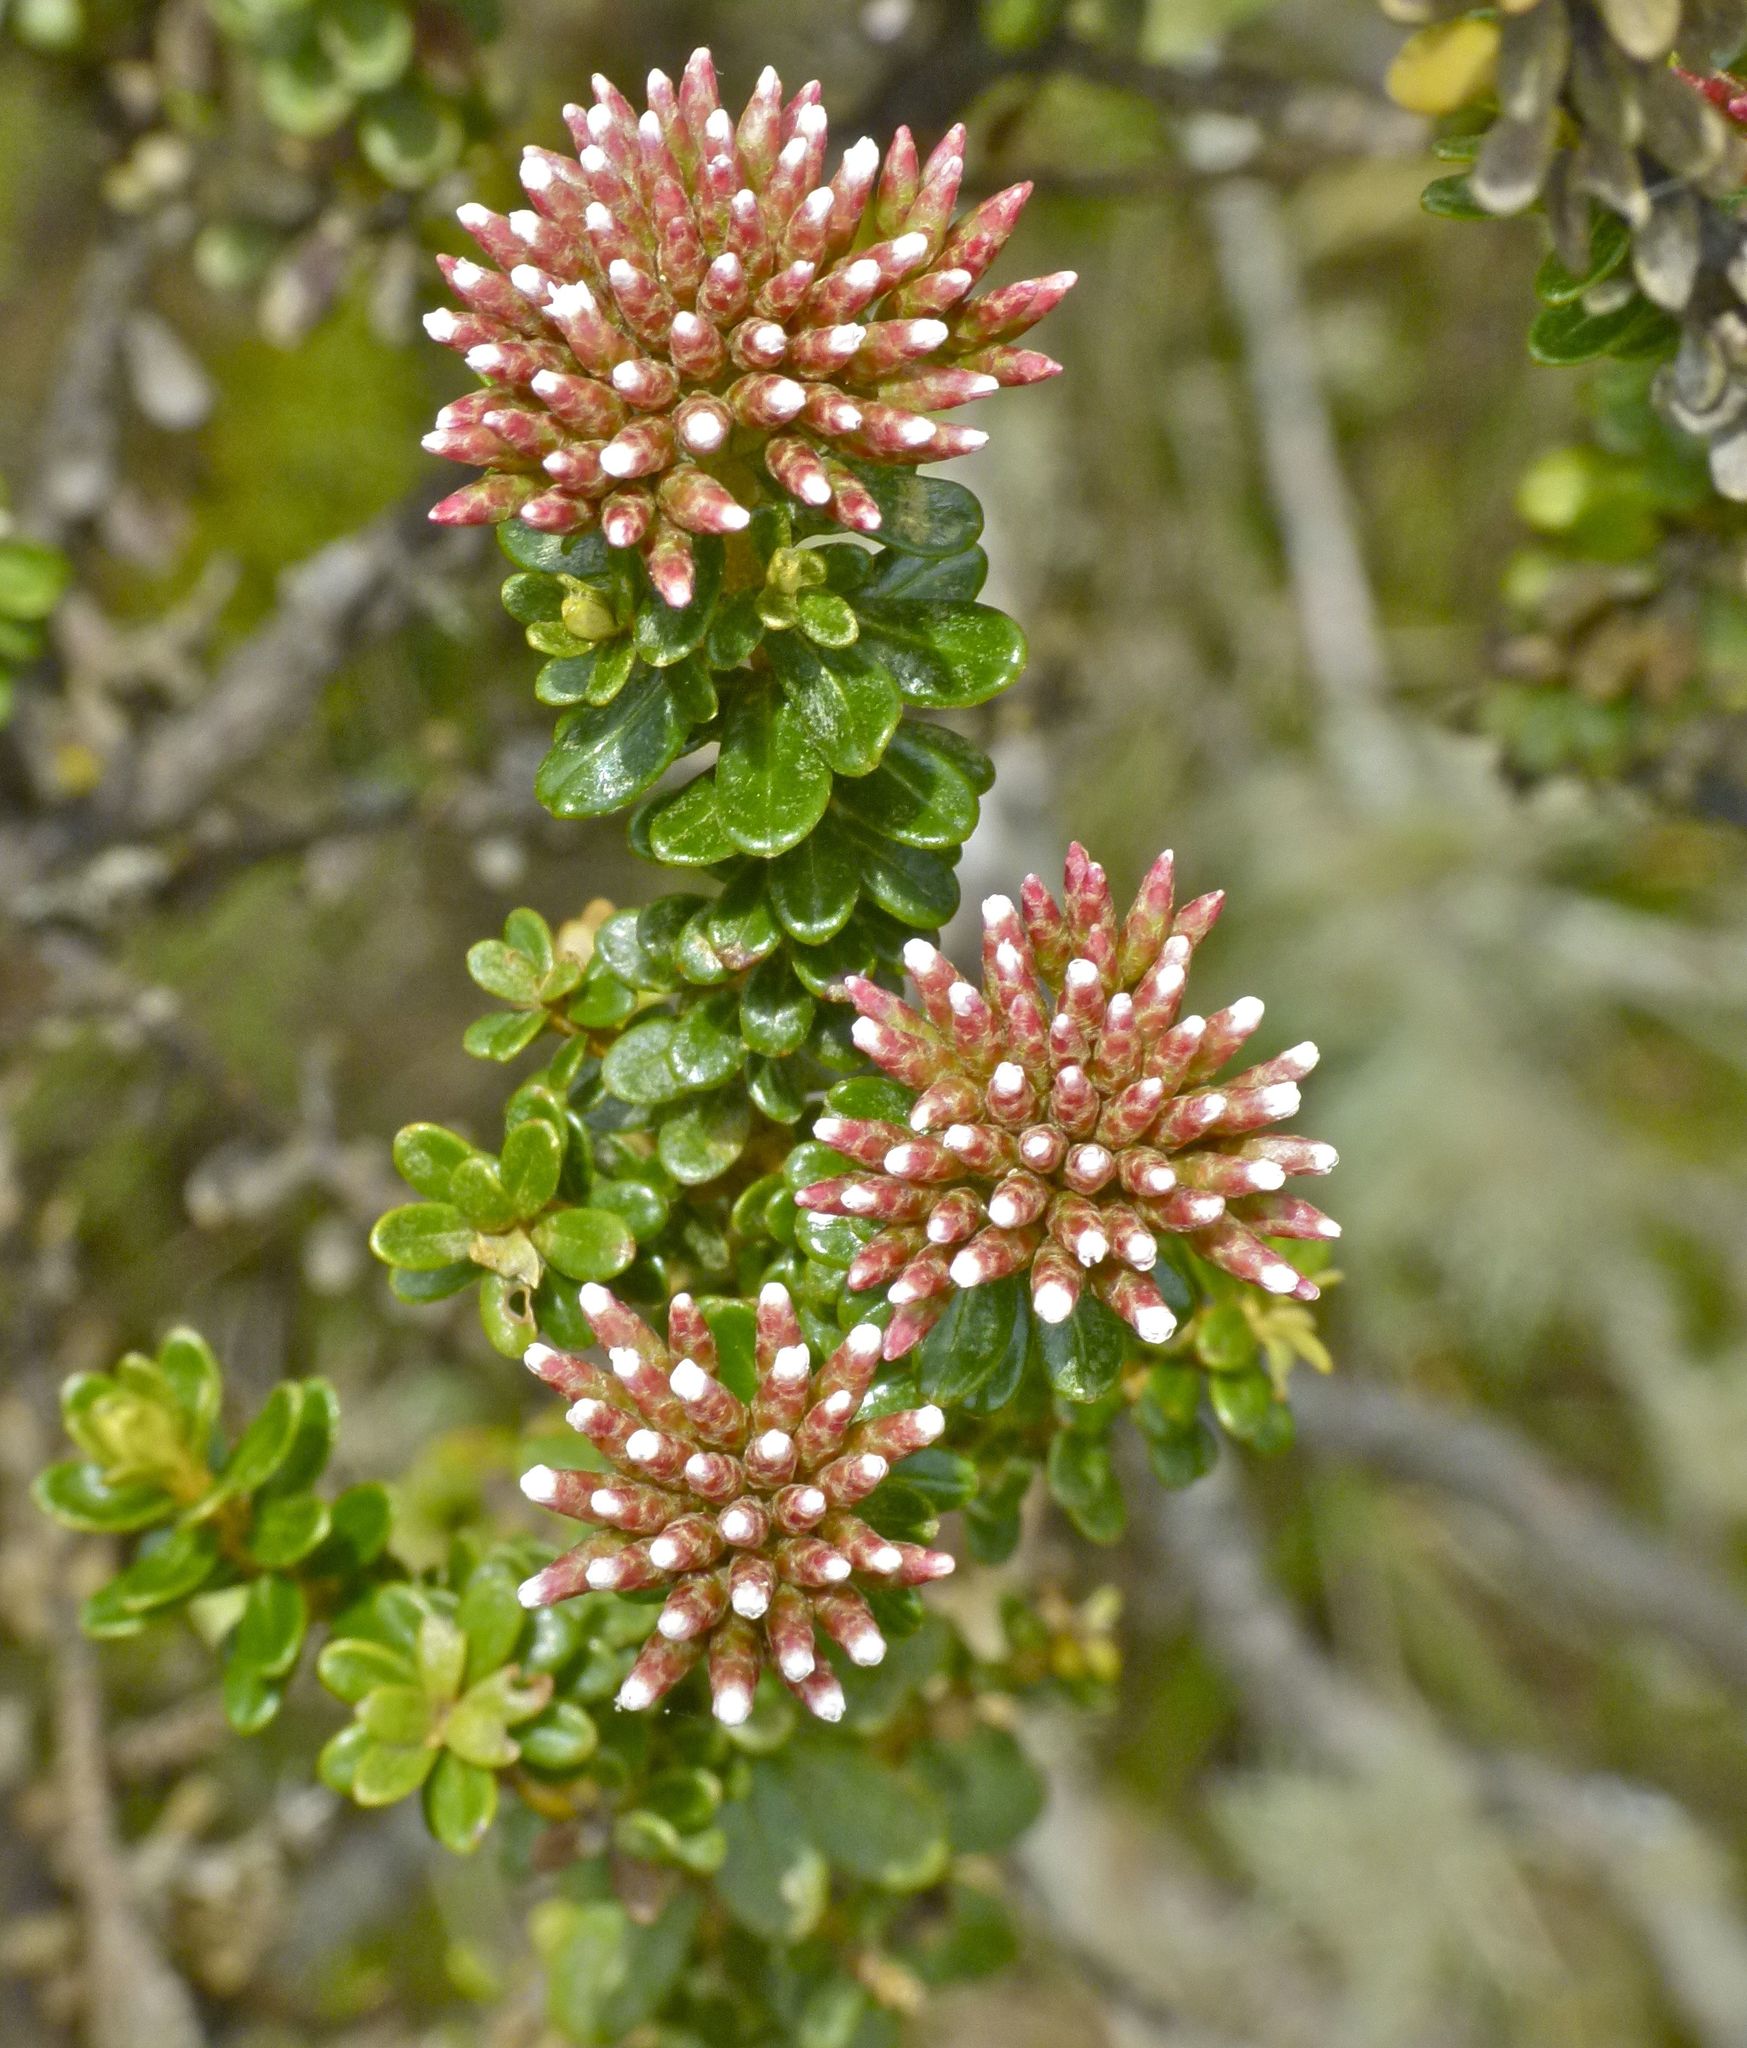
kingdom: Plantae
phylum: Tracheophyta
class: Magnoliopsida
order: Asterales
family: Asteraceae
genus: Ozothamnus
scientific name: Ozothamnus leptophyllus
